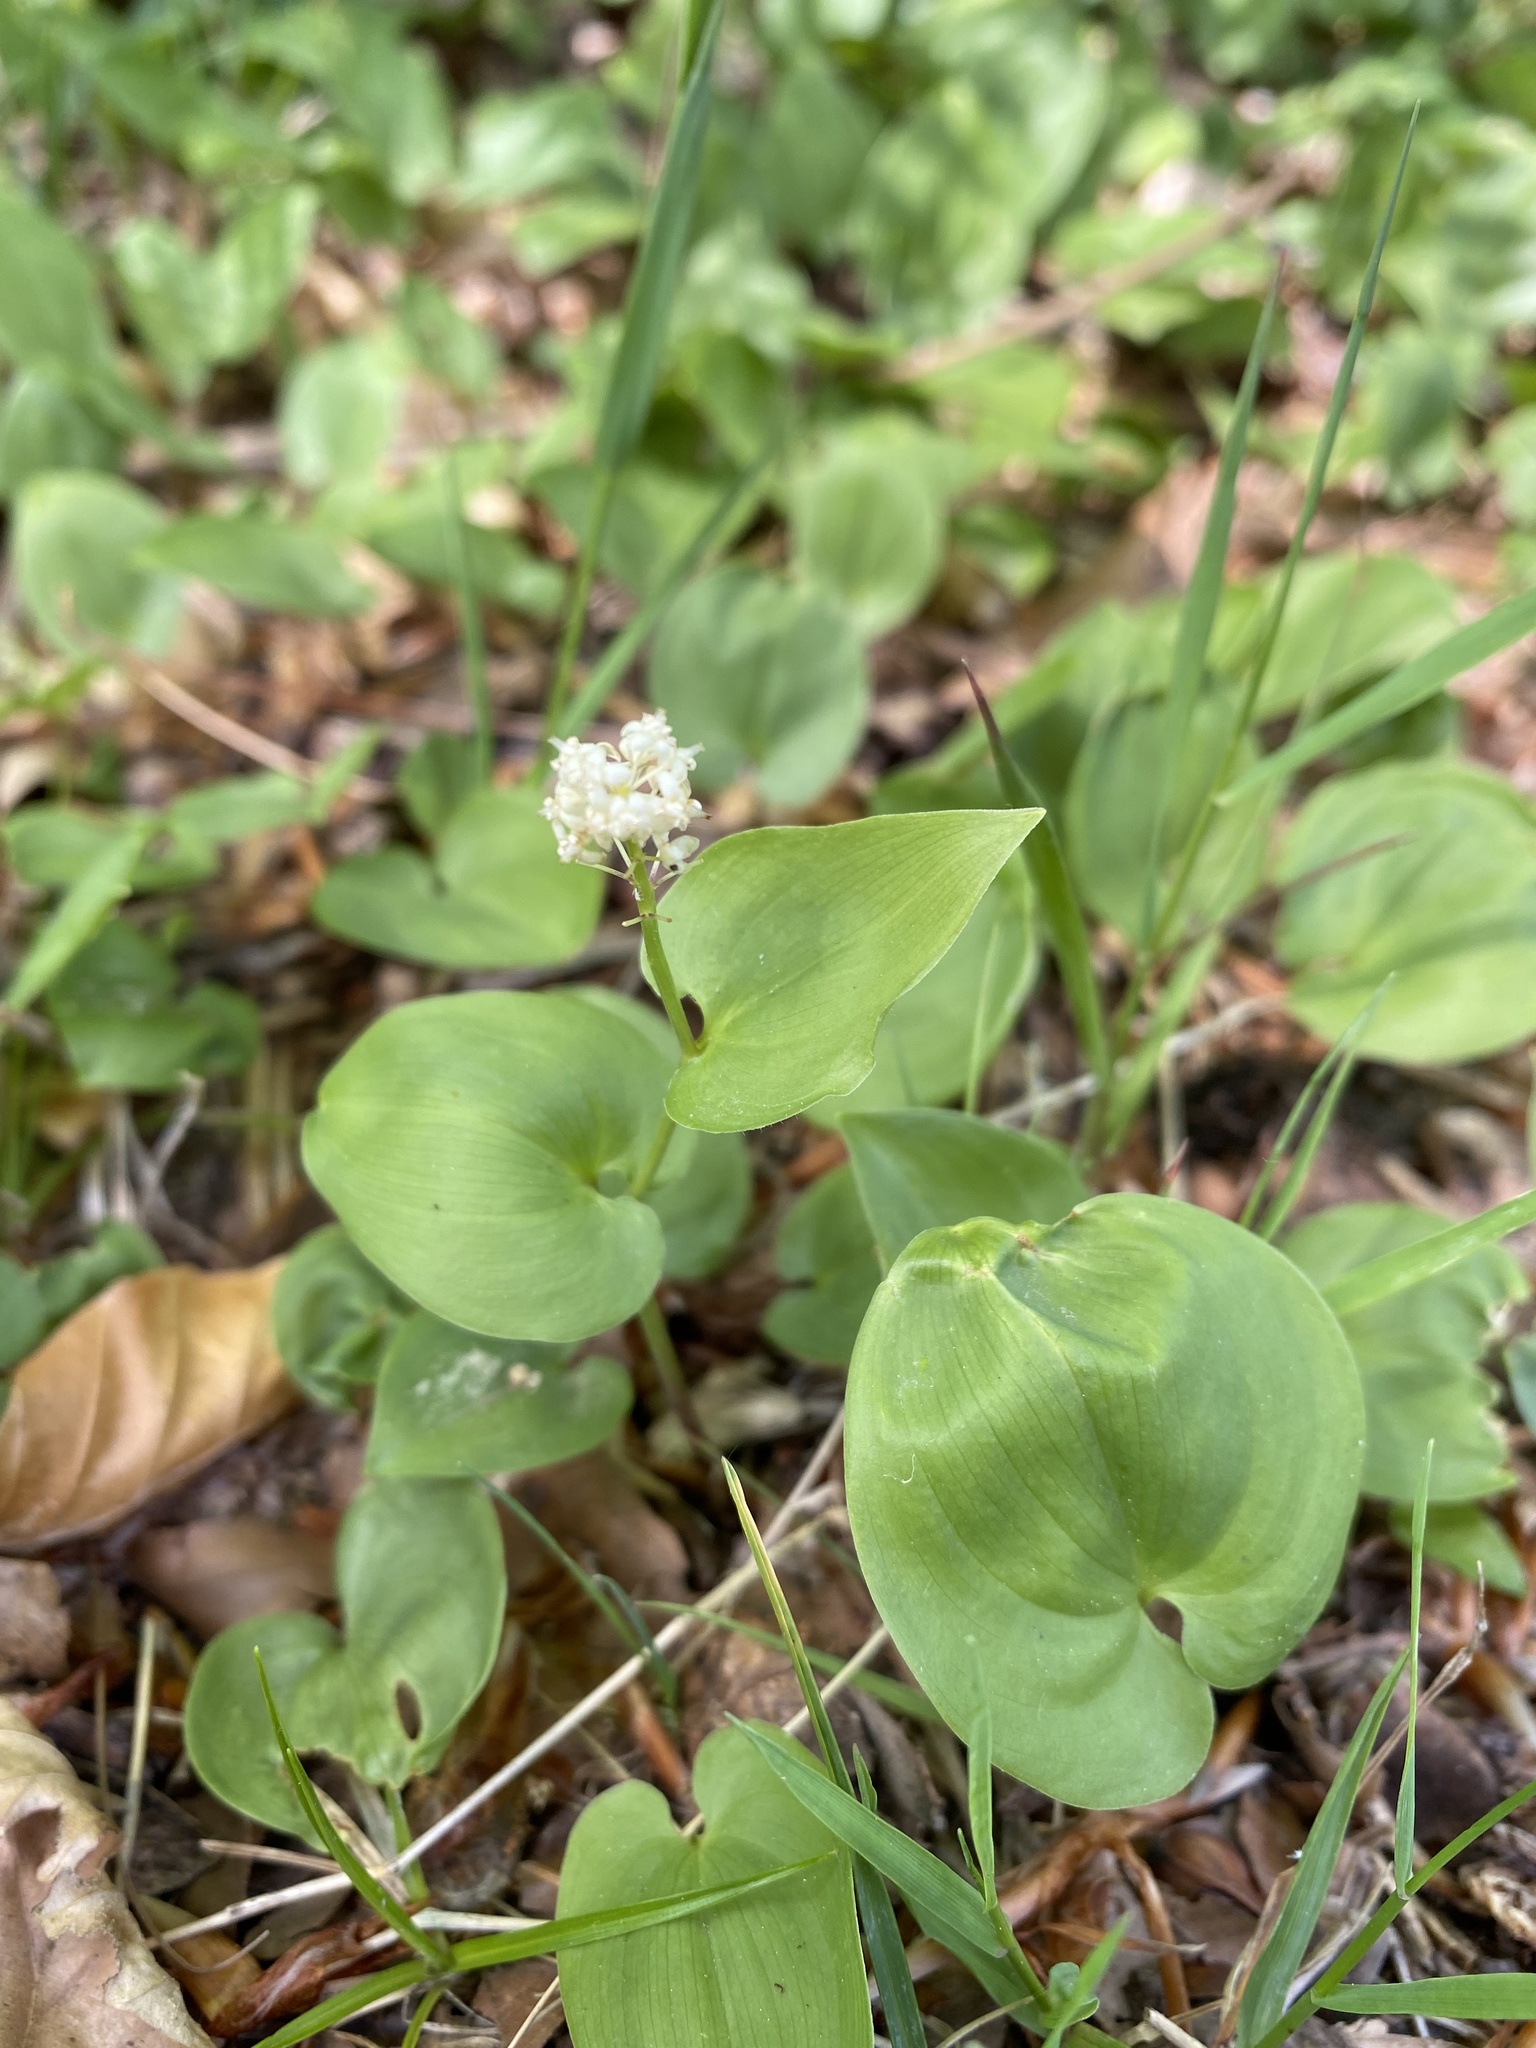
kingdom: Plantae
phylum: Tracheophyta
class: Liliopsida
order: Asparagales
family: Asparagaceae
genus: Maianthemum
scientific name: Maianthemum bifolium
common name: May lily
